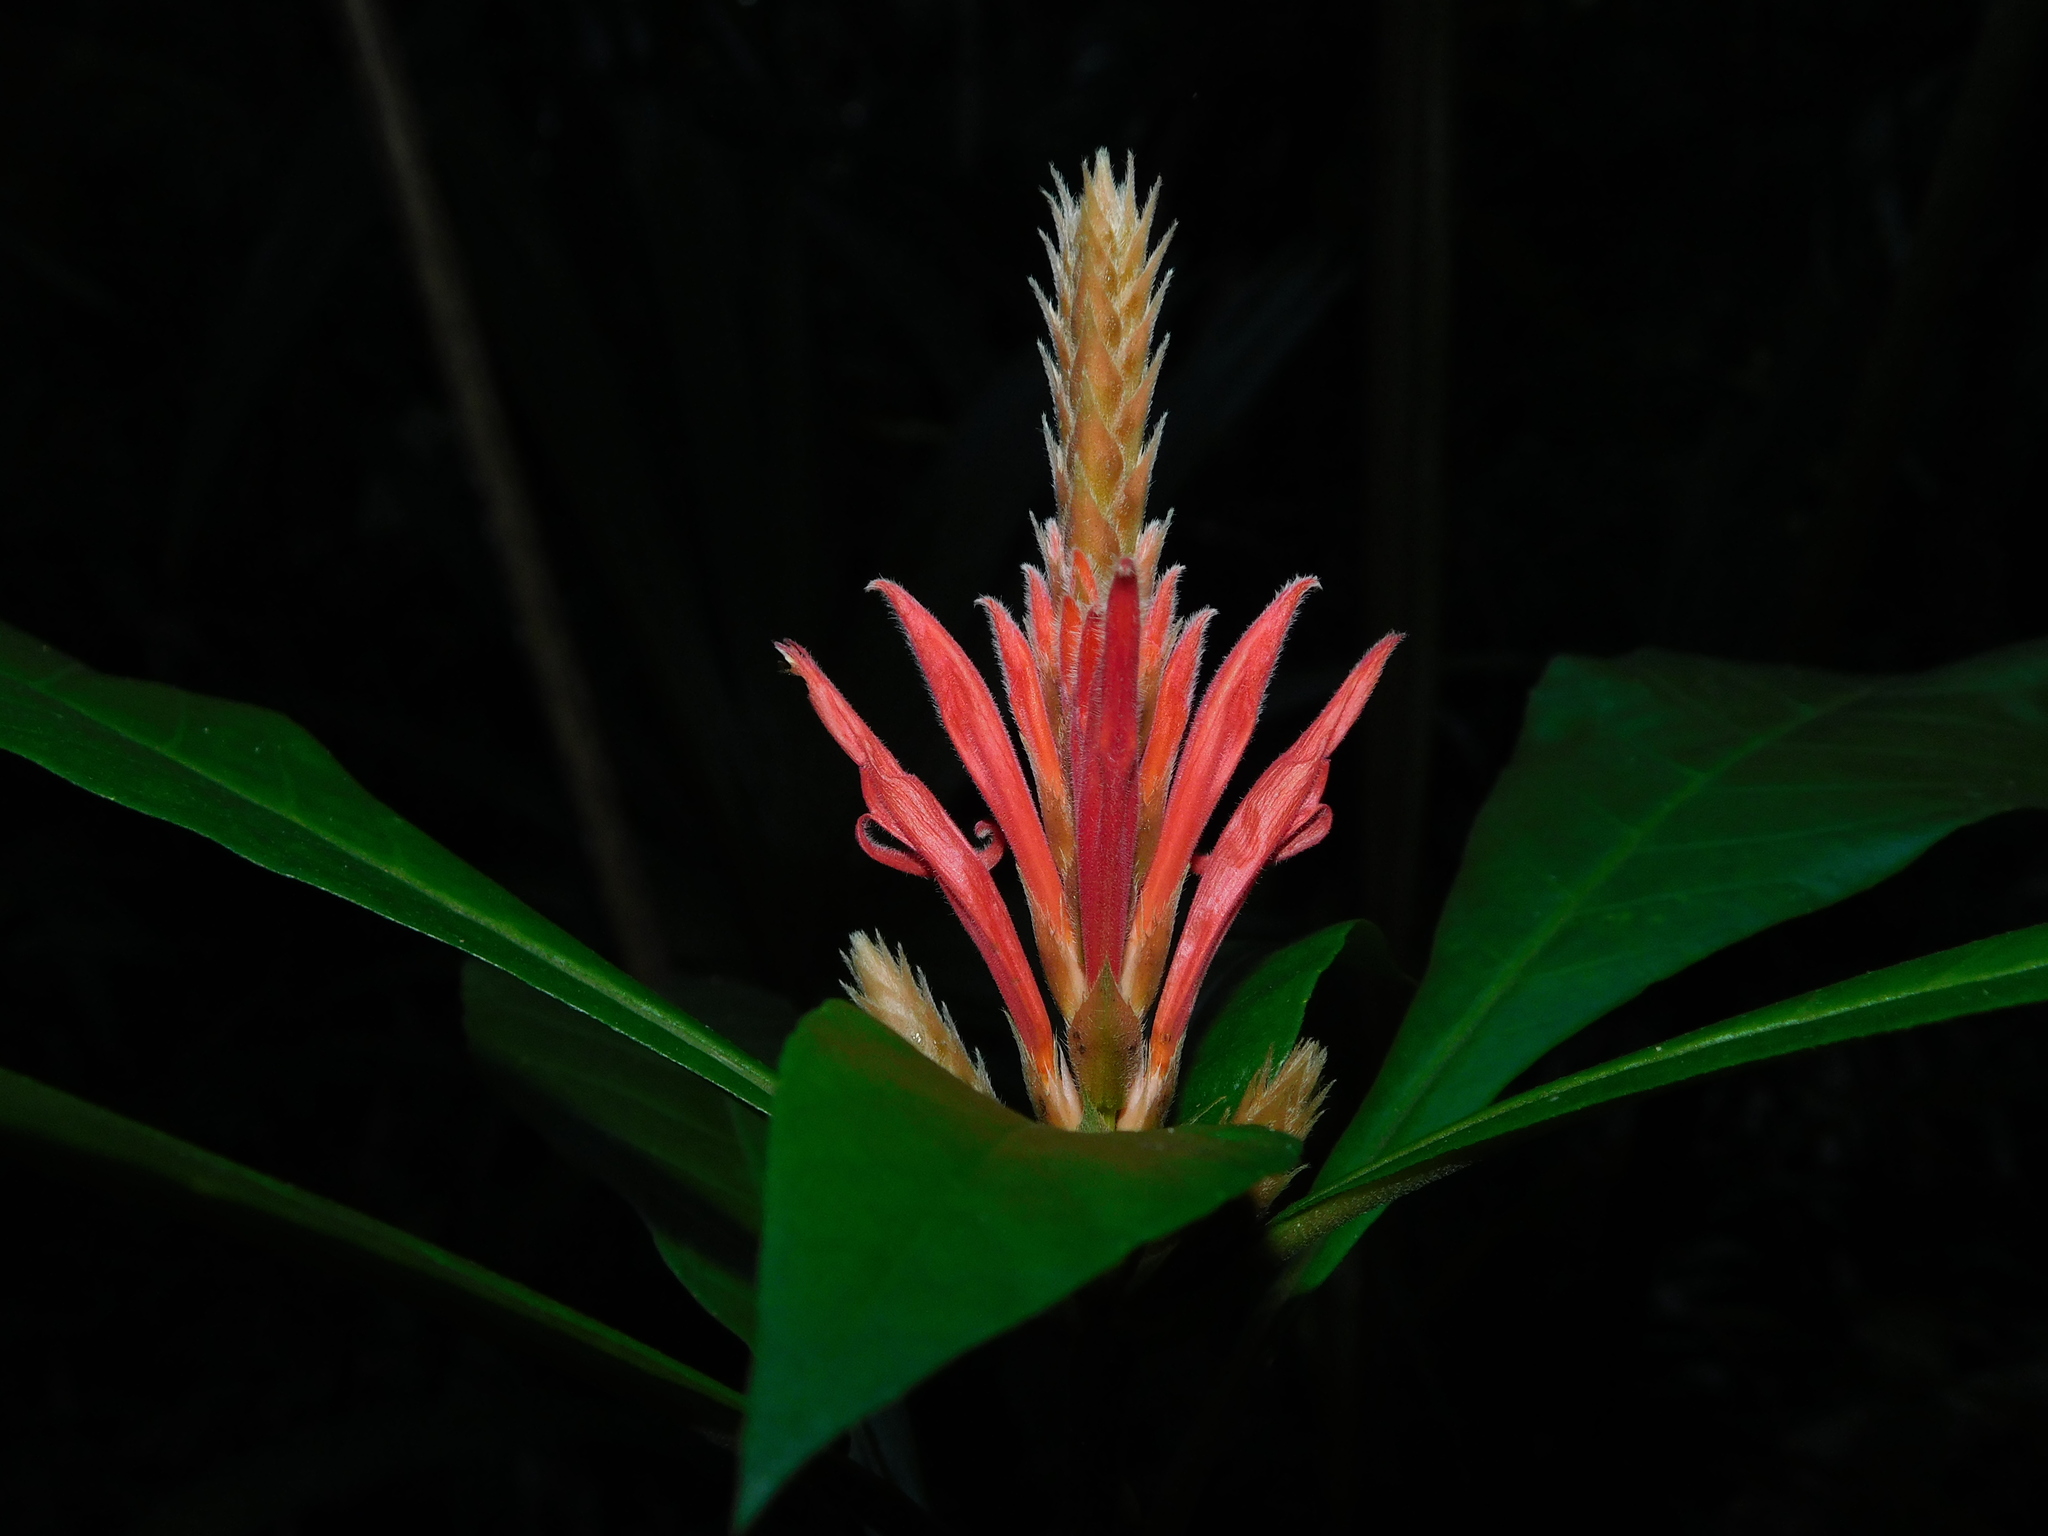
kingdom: Plantae
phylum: Tracheophyta
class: Magnoliopsida
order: Lamiales
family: Acanthaceae
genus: Aphelandra
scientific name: Aphelandra scabra
